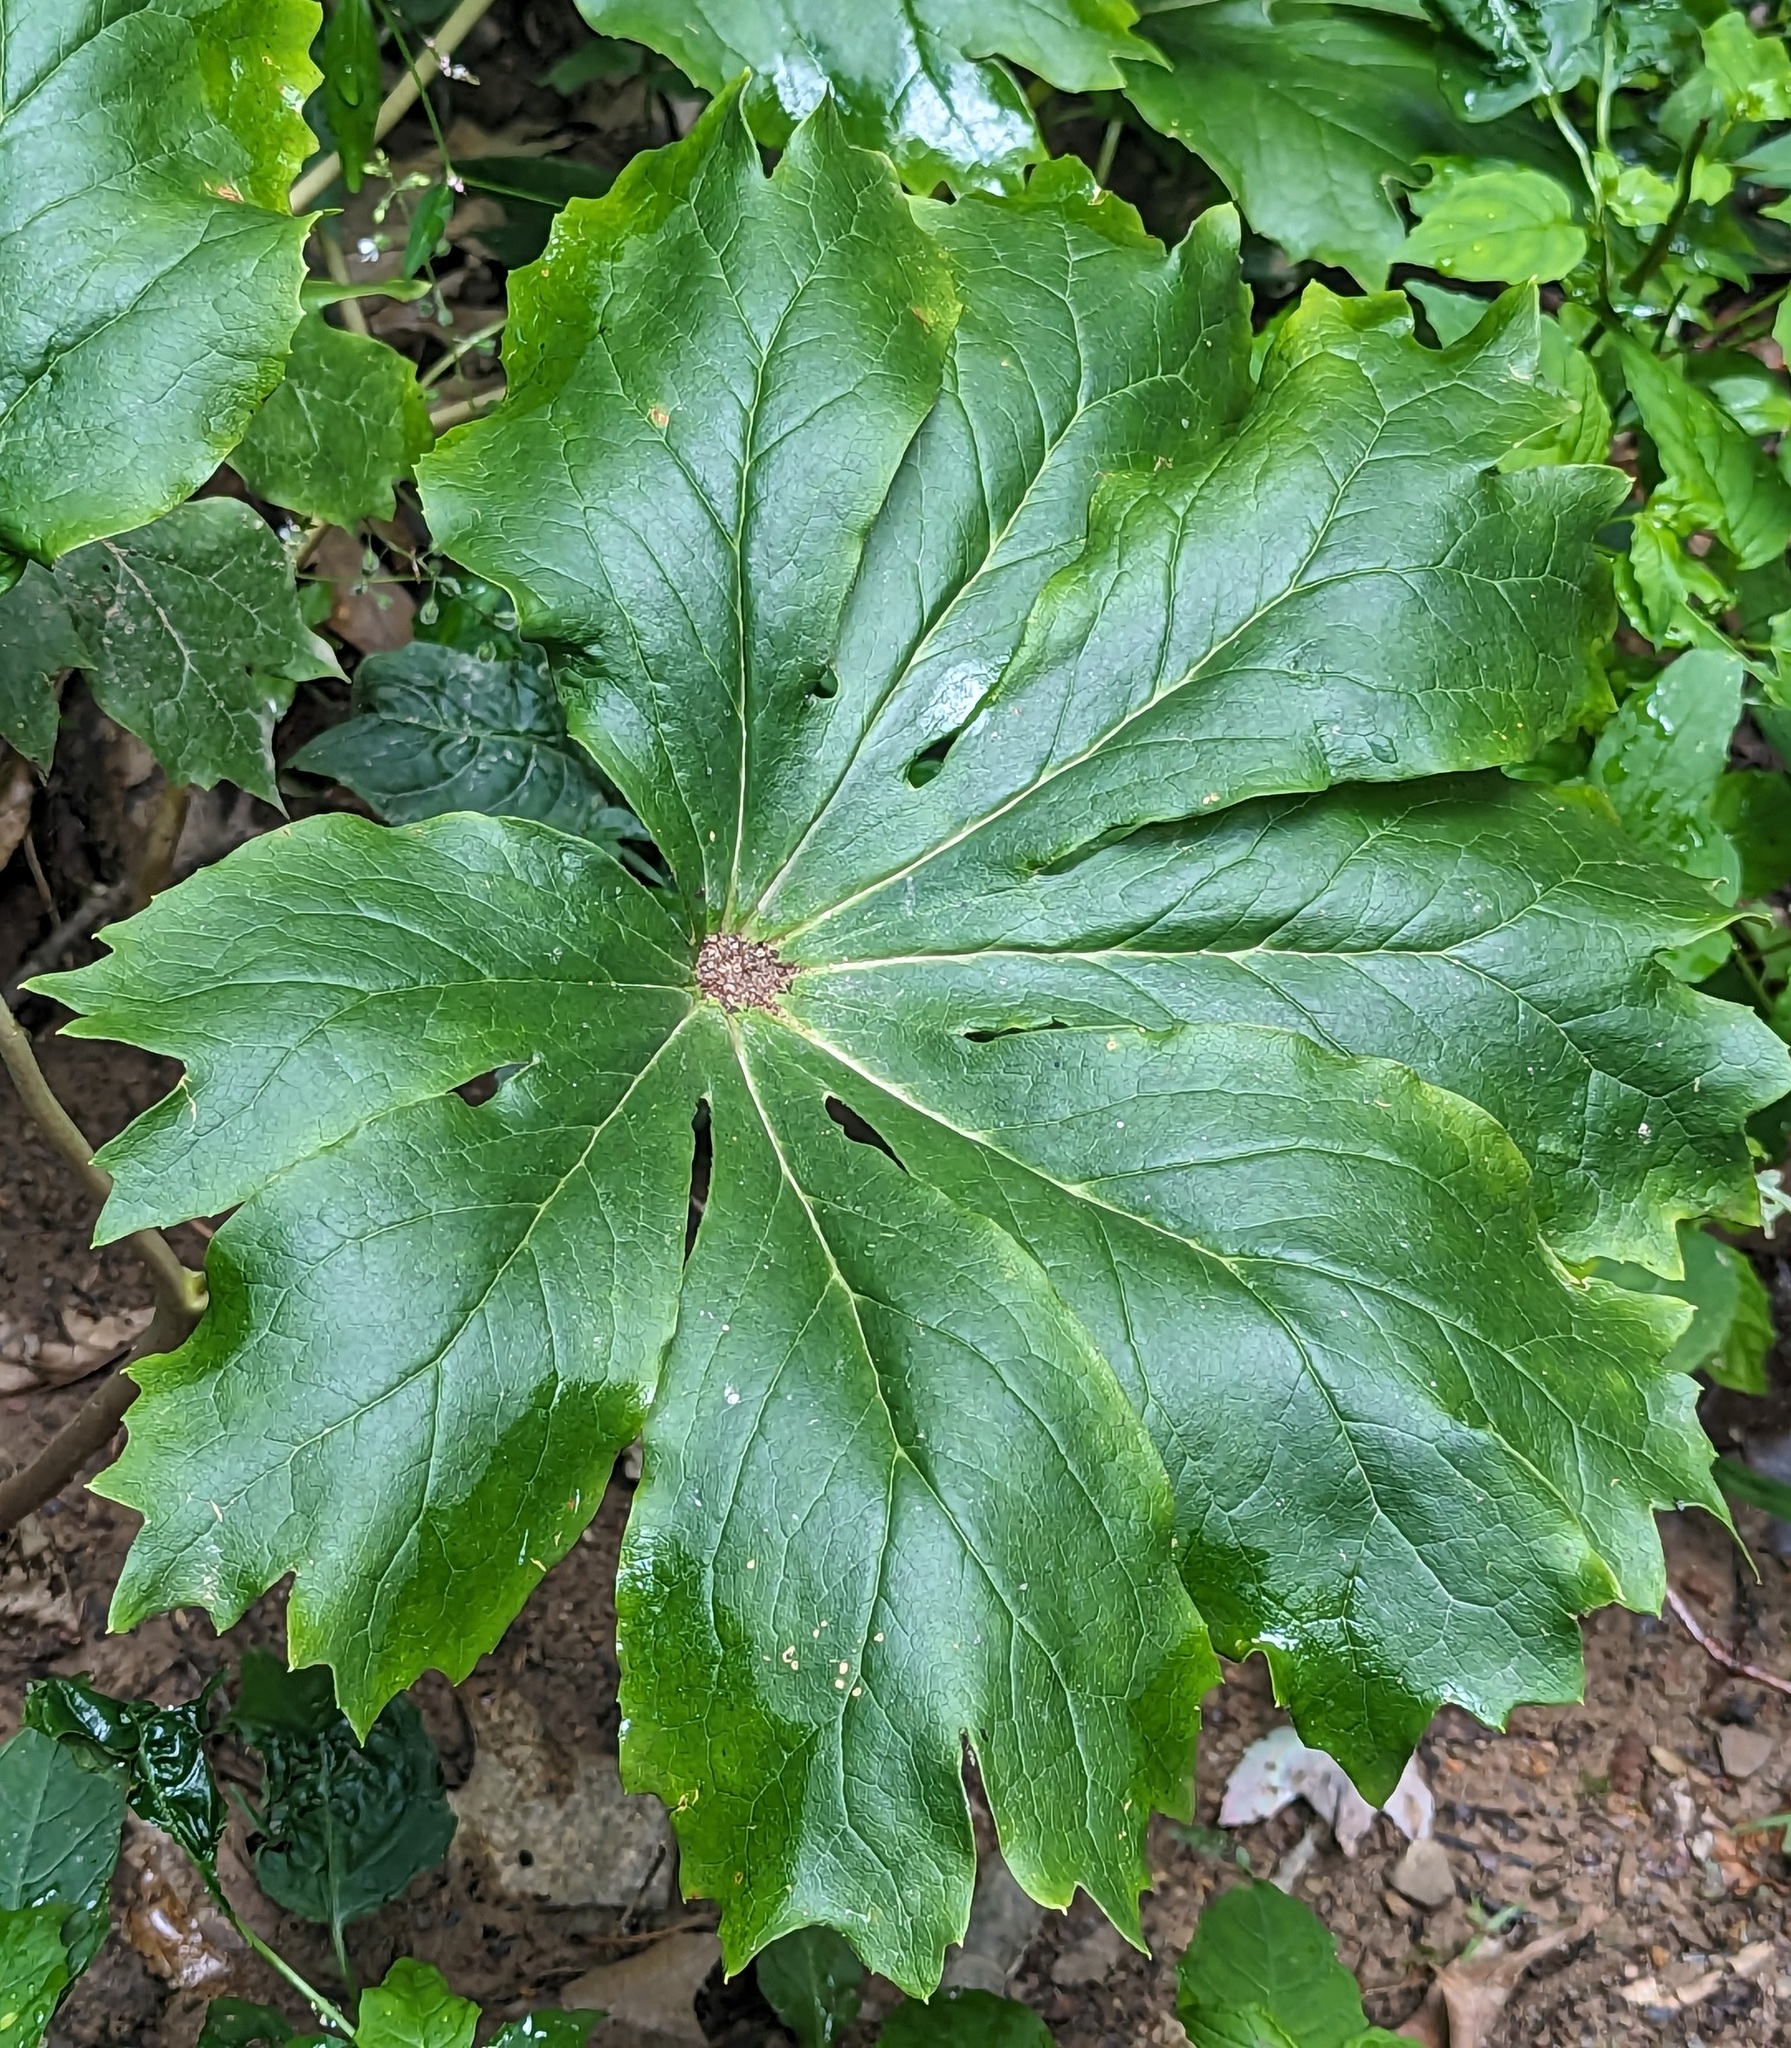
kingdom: Plantae
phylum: Tracheophyta
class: Magnoliopsida
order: Ranunculales
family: Berberidaceae
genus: Podophyllum
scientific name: Podophyllum peltatum
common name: Wild mandrake
